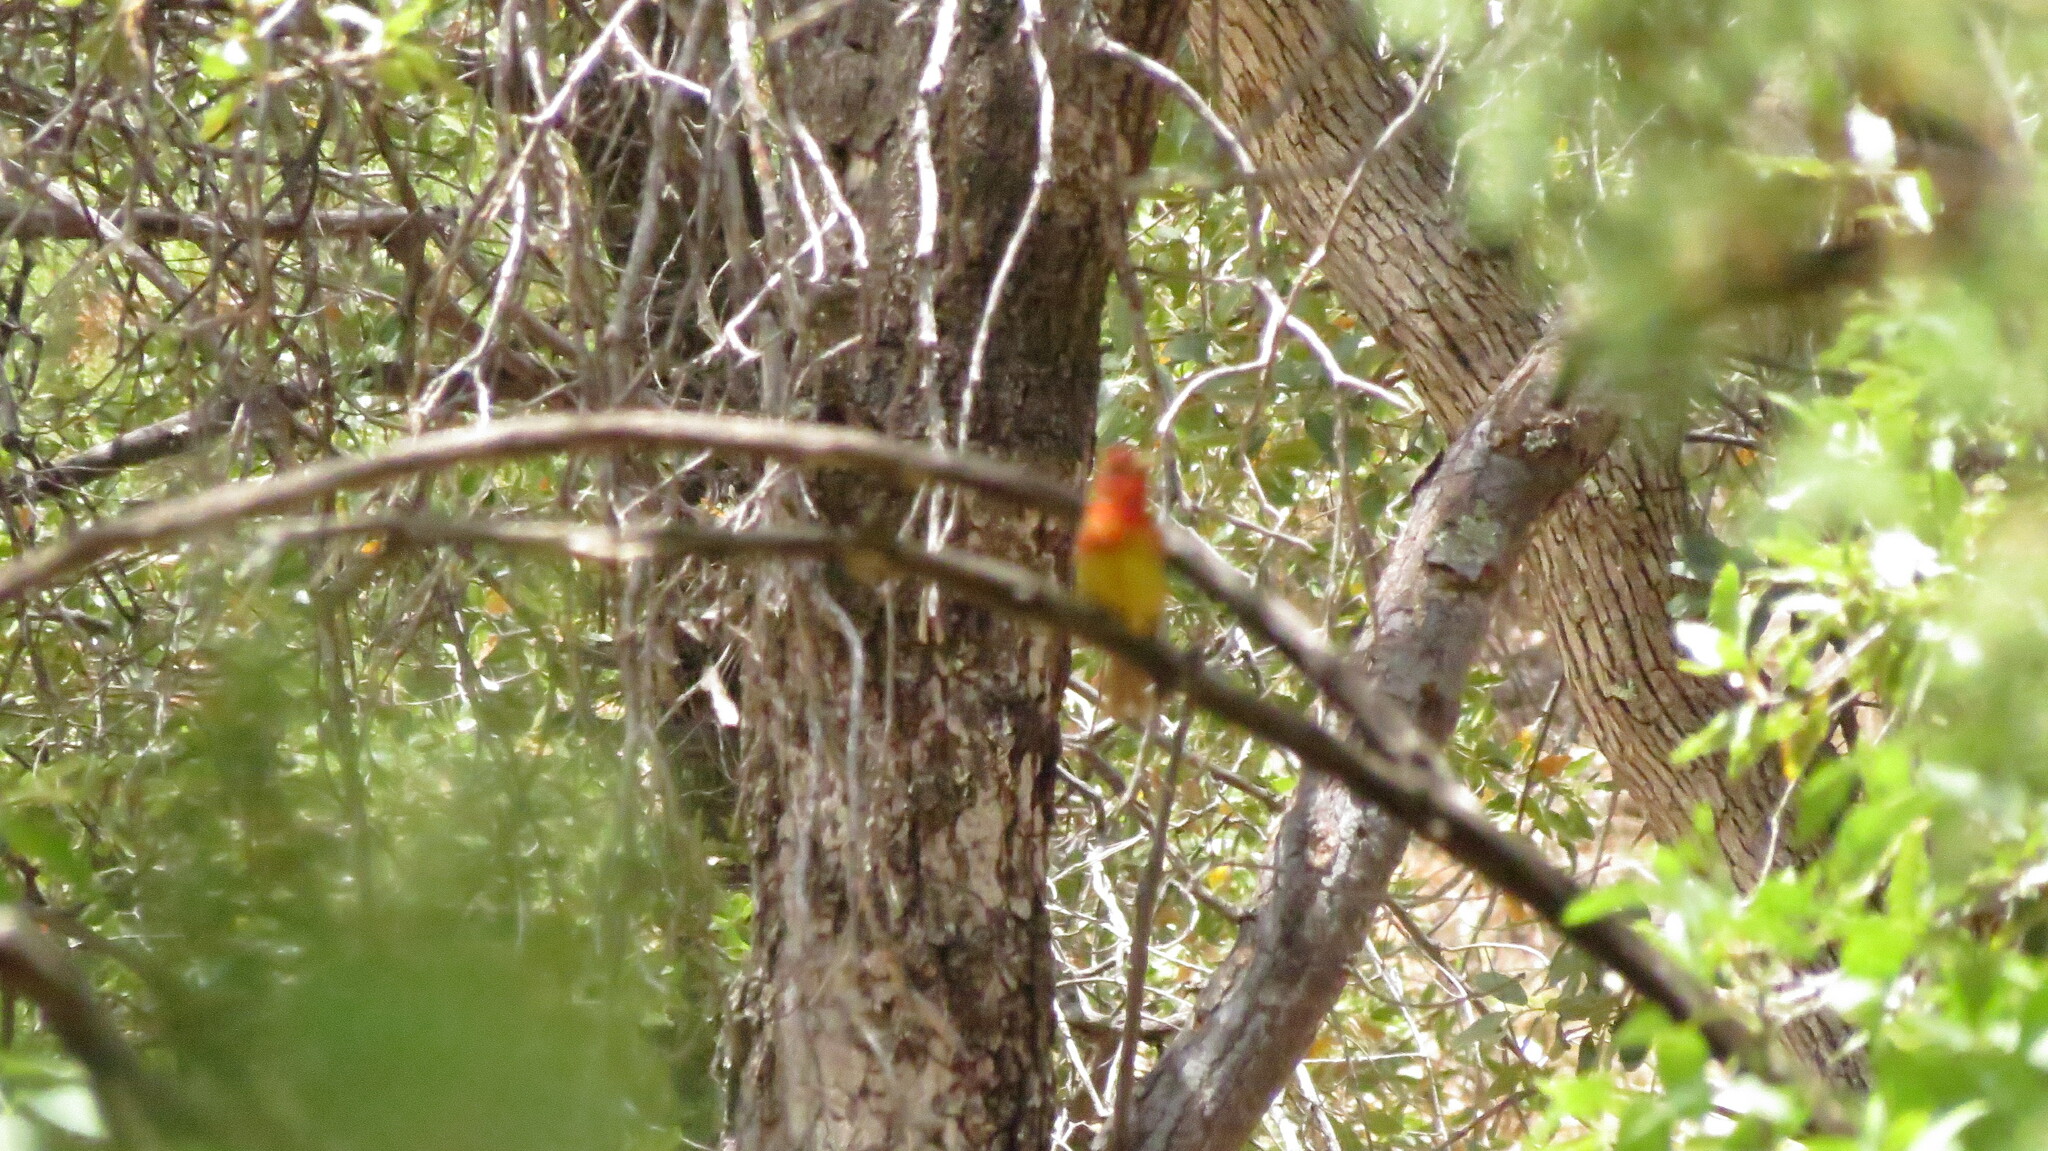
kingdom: Animalia
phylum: Chordata
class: Aves
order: Passeriformes
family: Cardinalidae
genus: Piranga
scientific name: Piranga rubra
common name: Summer tanager
